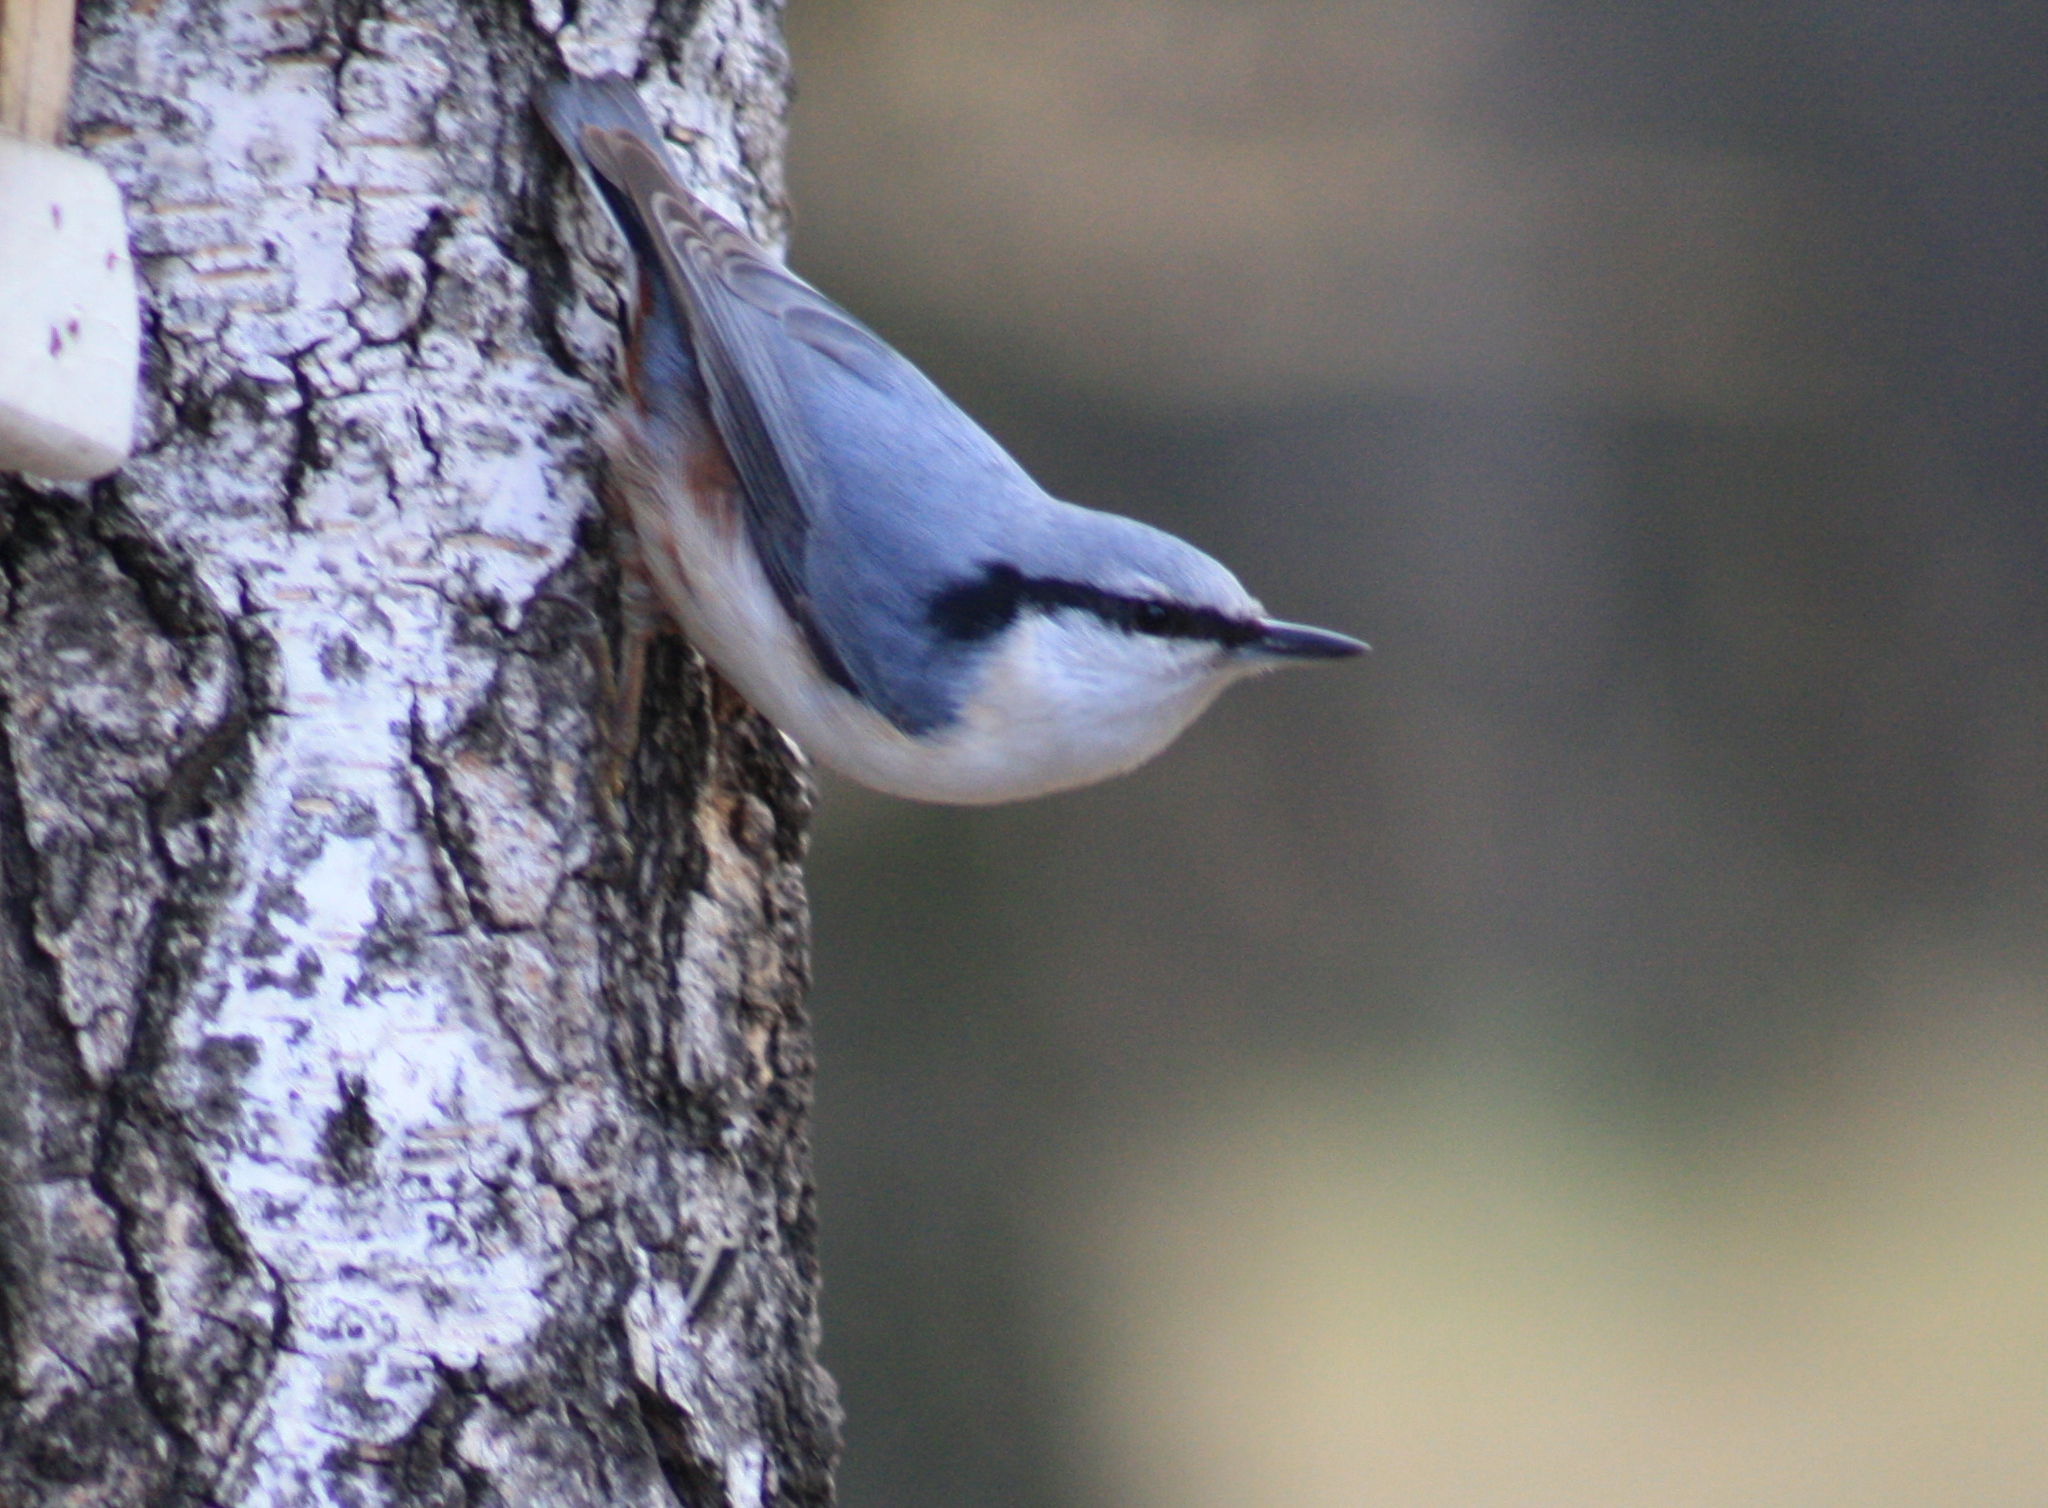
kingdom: Animalia
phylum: Chordata
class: Aves
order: Passeriformes
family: Sittidae
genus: Sitta
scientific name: Sitta europaea
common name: Eurasian nuthatch
